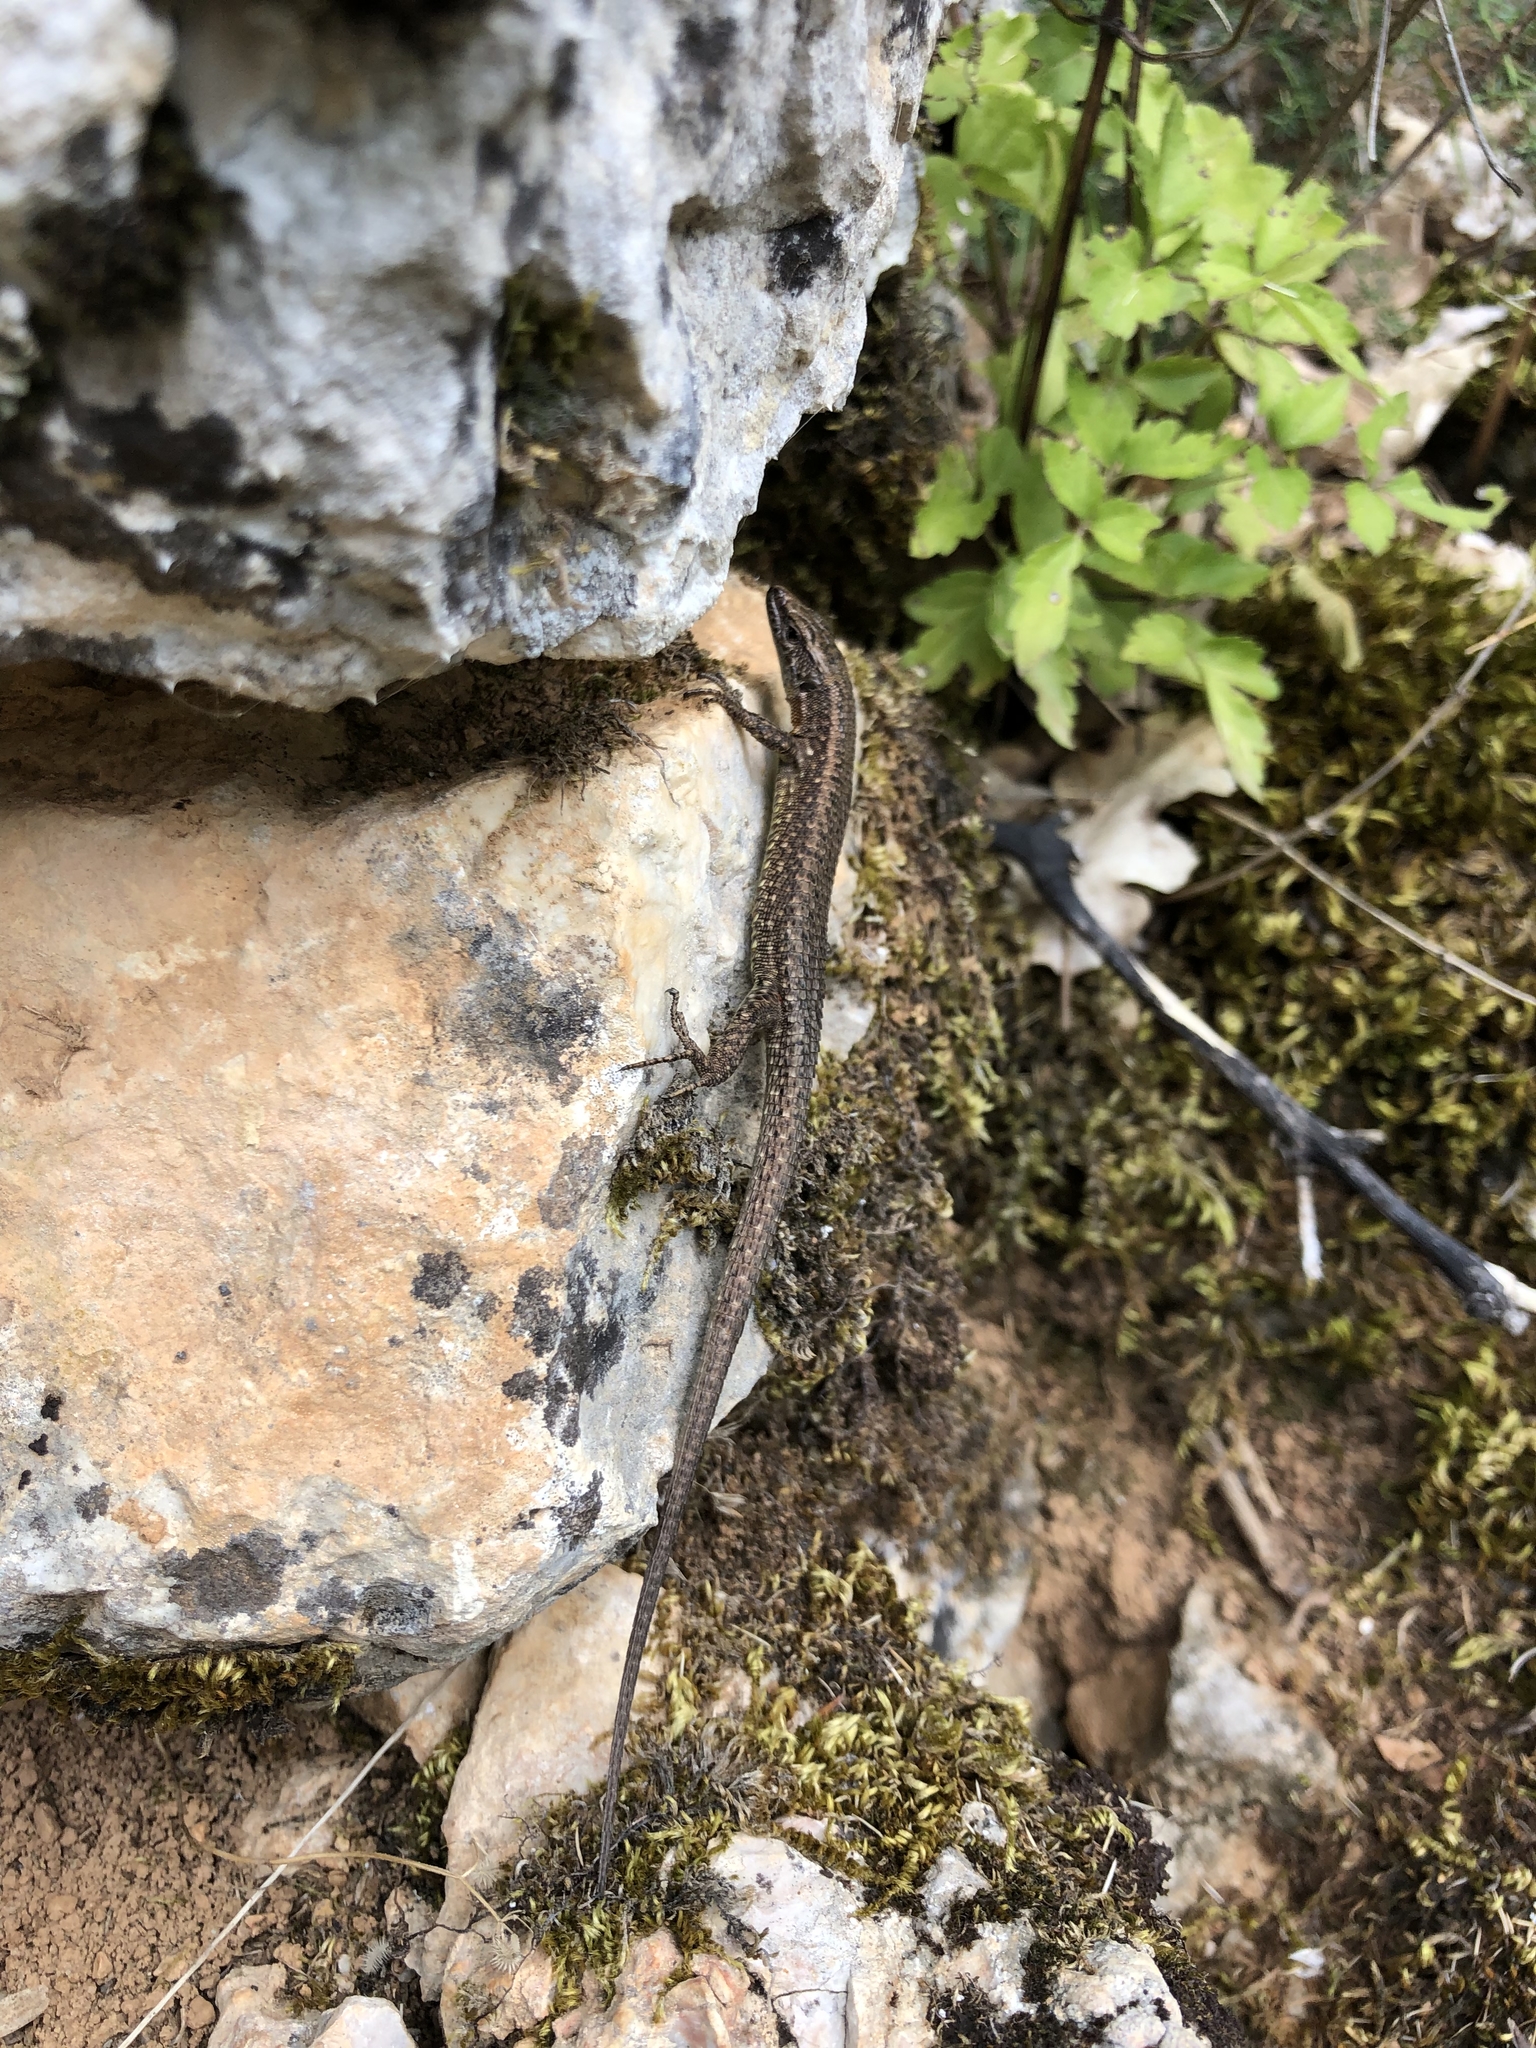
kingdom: Animalia
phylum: Chordata
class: Squamata
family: Lacertidae
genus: Algyroides
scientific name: Algyroides nigropunctatus
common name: Blue-throated keeled lizard
